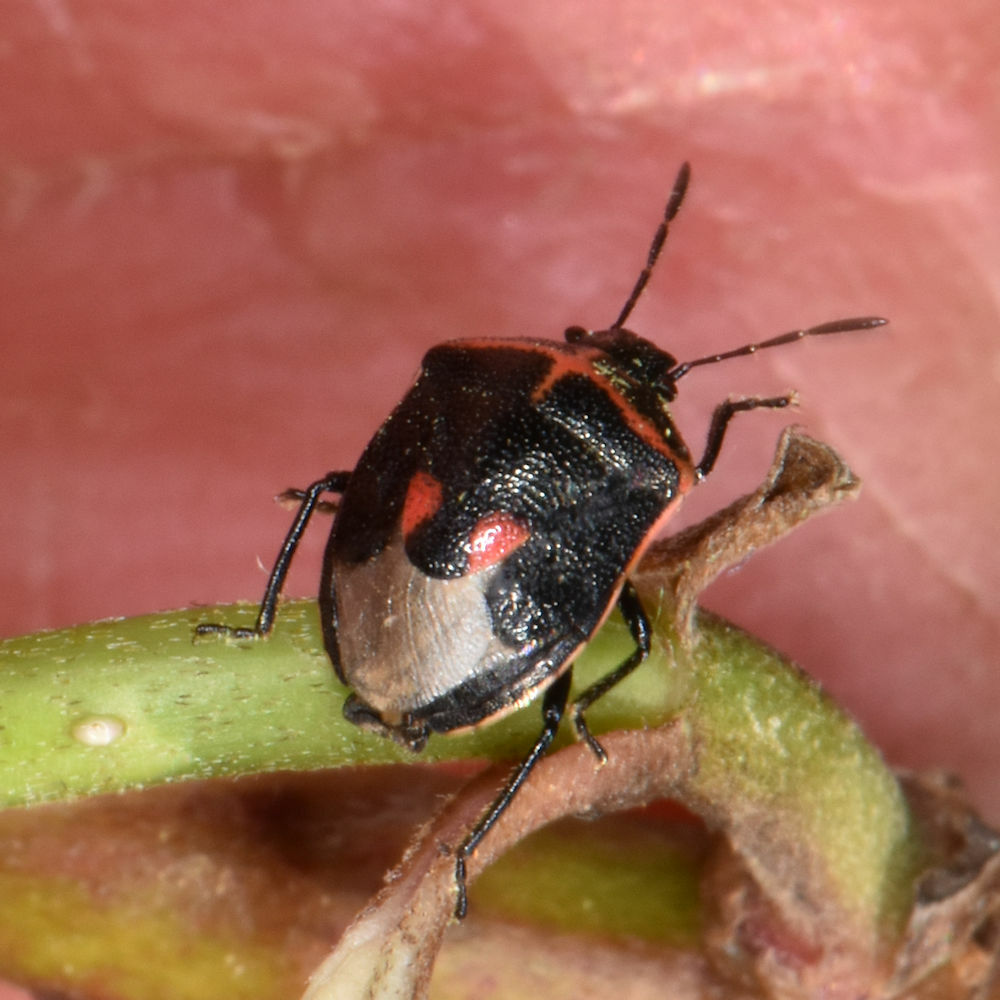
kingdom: Animalia
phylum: Arthropoda
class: Insecta
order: Hemiptera
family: Pentatomidae
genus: Cosmopepla
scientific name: Cosmopepla lintneriana
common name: Twice-stabbed stink bug
